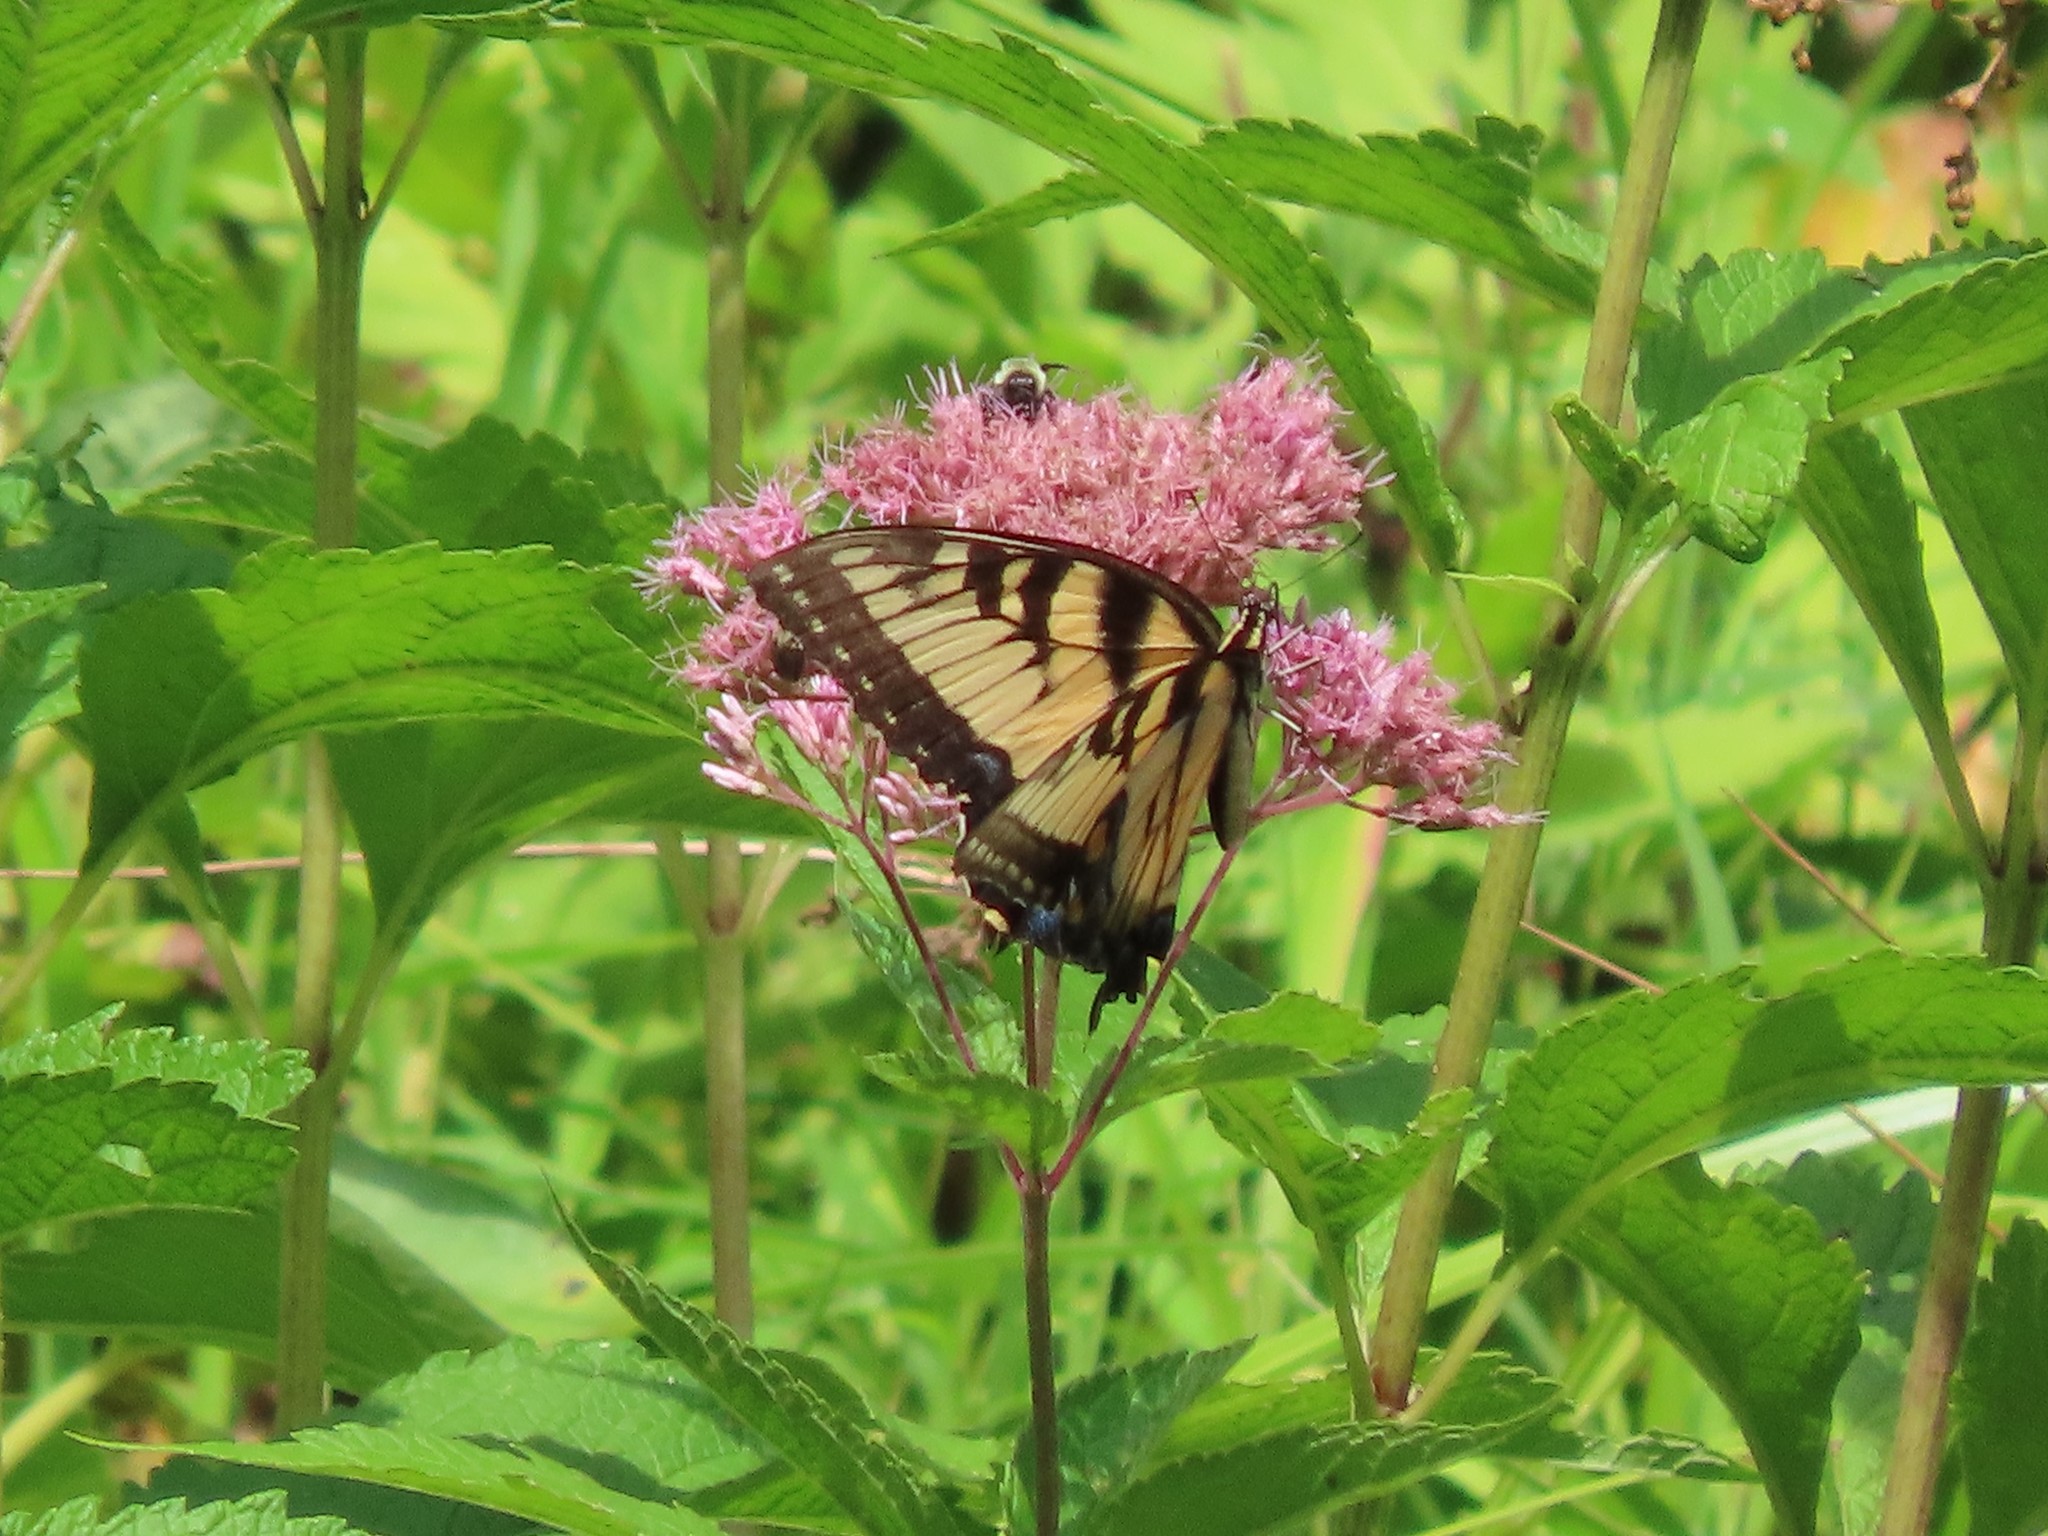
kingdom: Animalia
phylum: Arthropoda
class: Insecta
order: Lepidoptera
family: Papilionidae
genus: Papilio
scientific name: Papilio glaucus
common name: Tiger swallowtail
